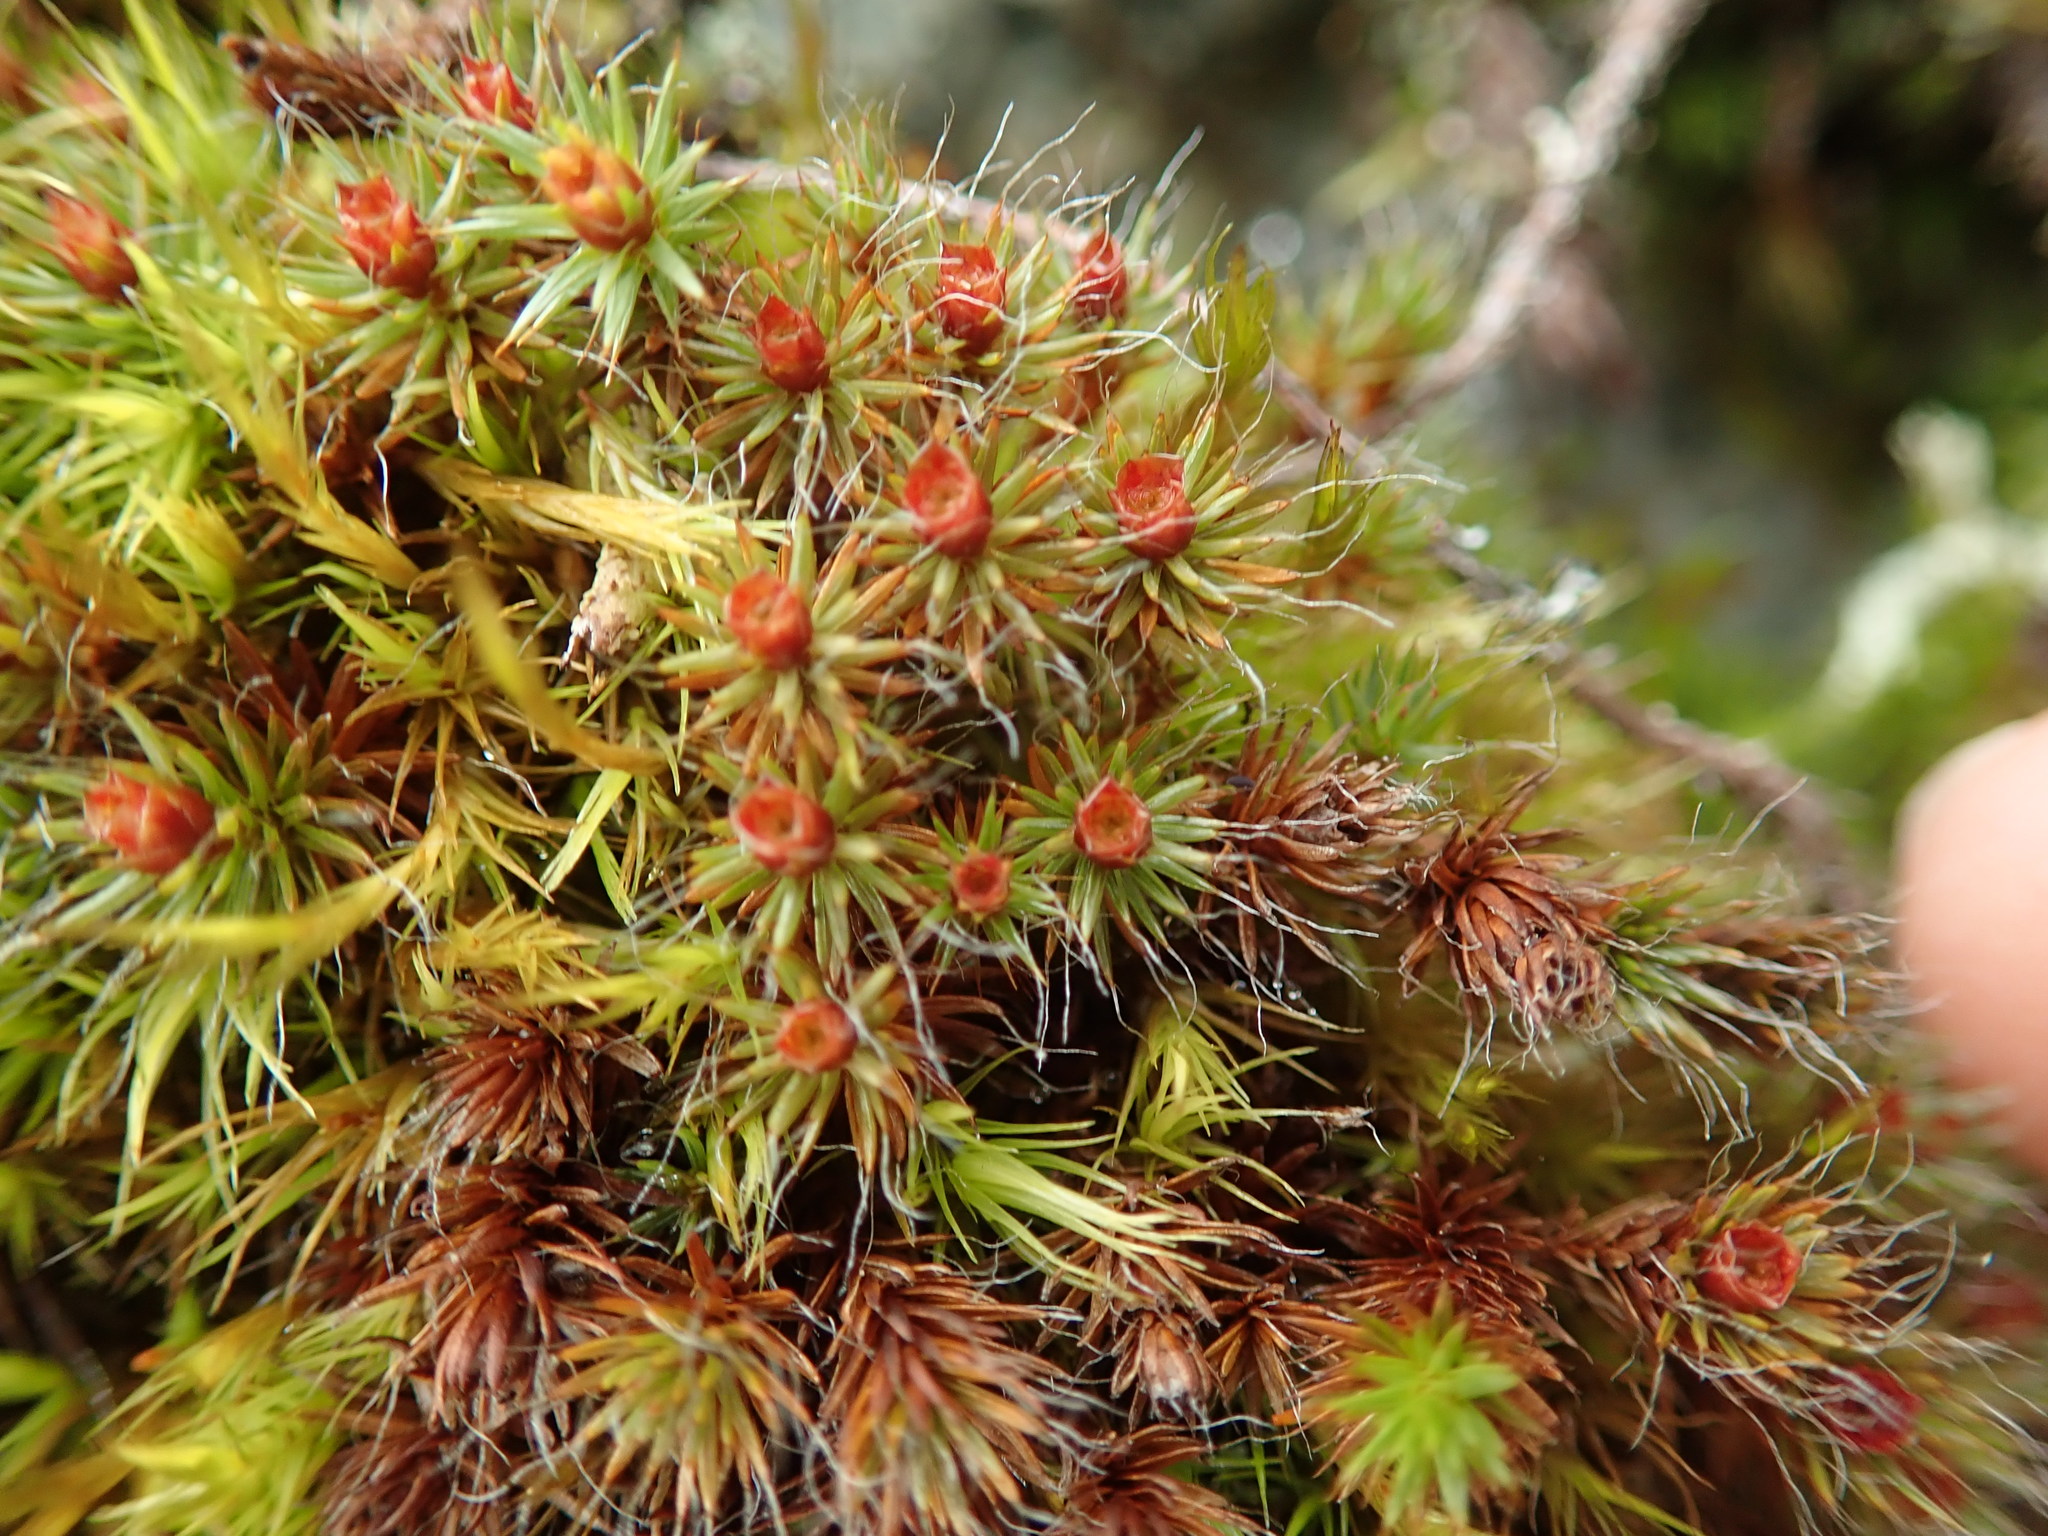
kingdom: Plantae
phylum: Bryophyta
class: Polytrichopsida
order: Polytrichales
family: Polytrichaceae
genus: Polytrichum
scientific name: Polytrichum piliferum
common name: Bristly haircap
